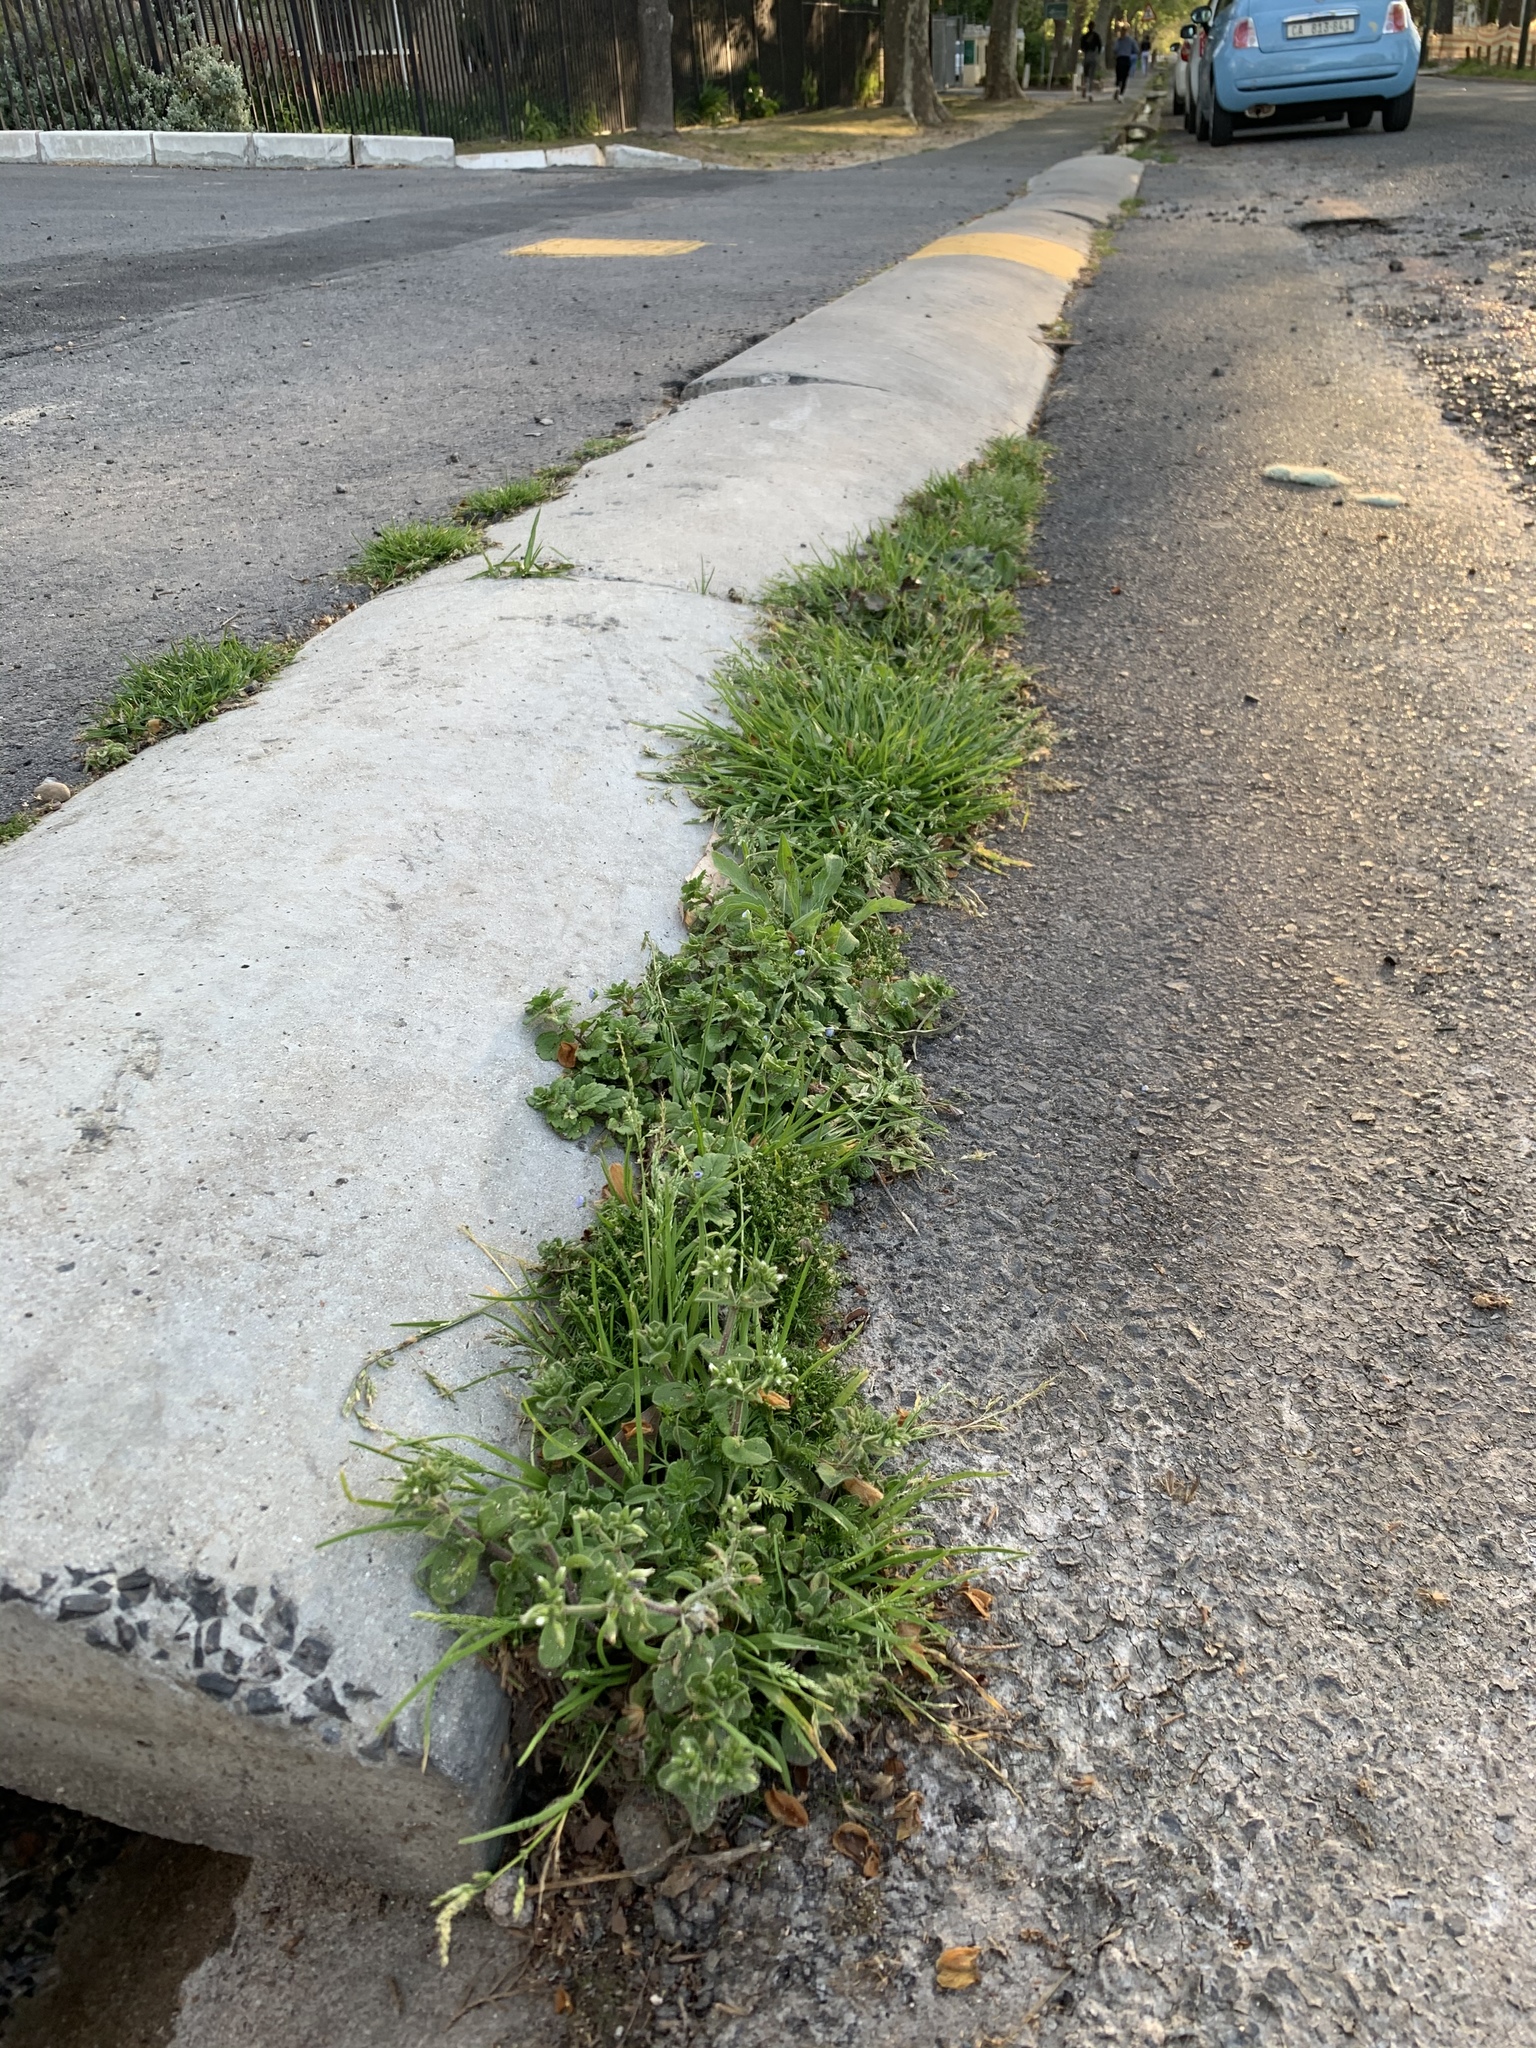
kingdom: Plantae
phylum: Tracheophyta
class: Magnoliopsida
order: Caryophyllales
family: Caryophyllaceae
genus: Cerastium
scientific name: Cerastium glomeratum
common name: Sticky chickweed
